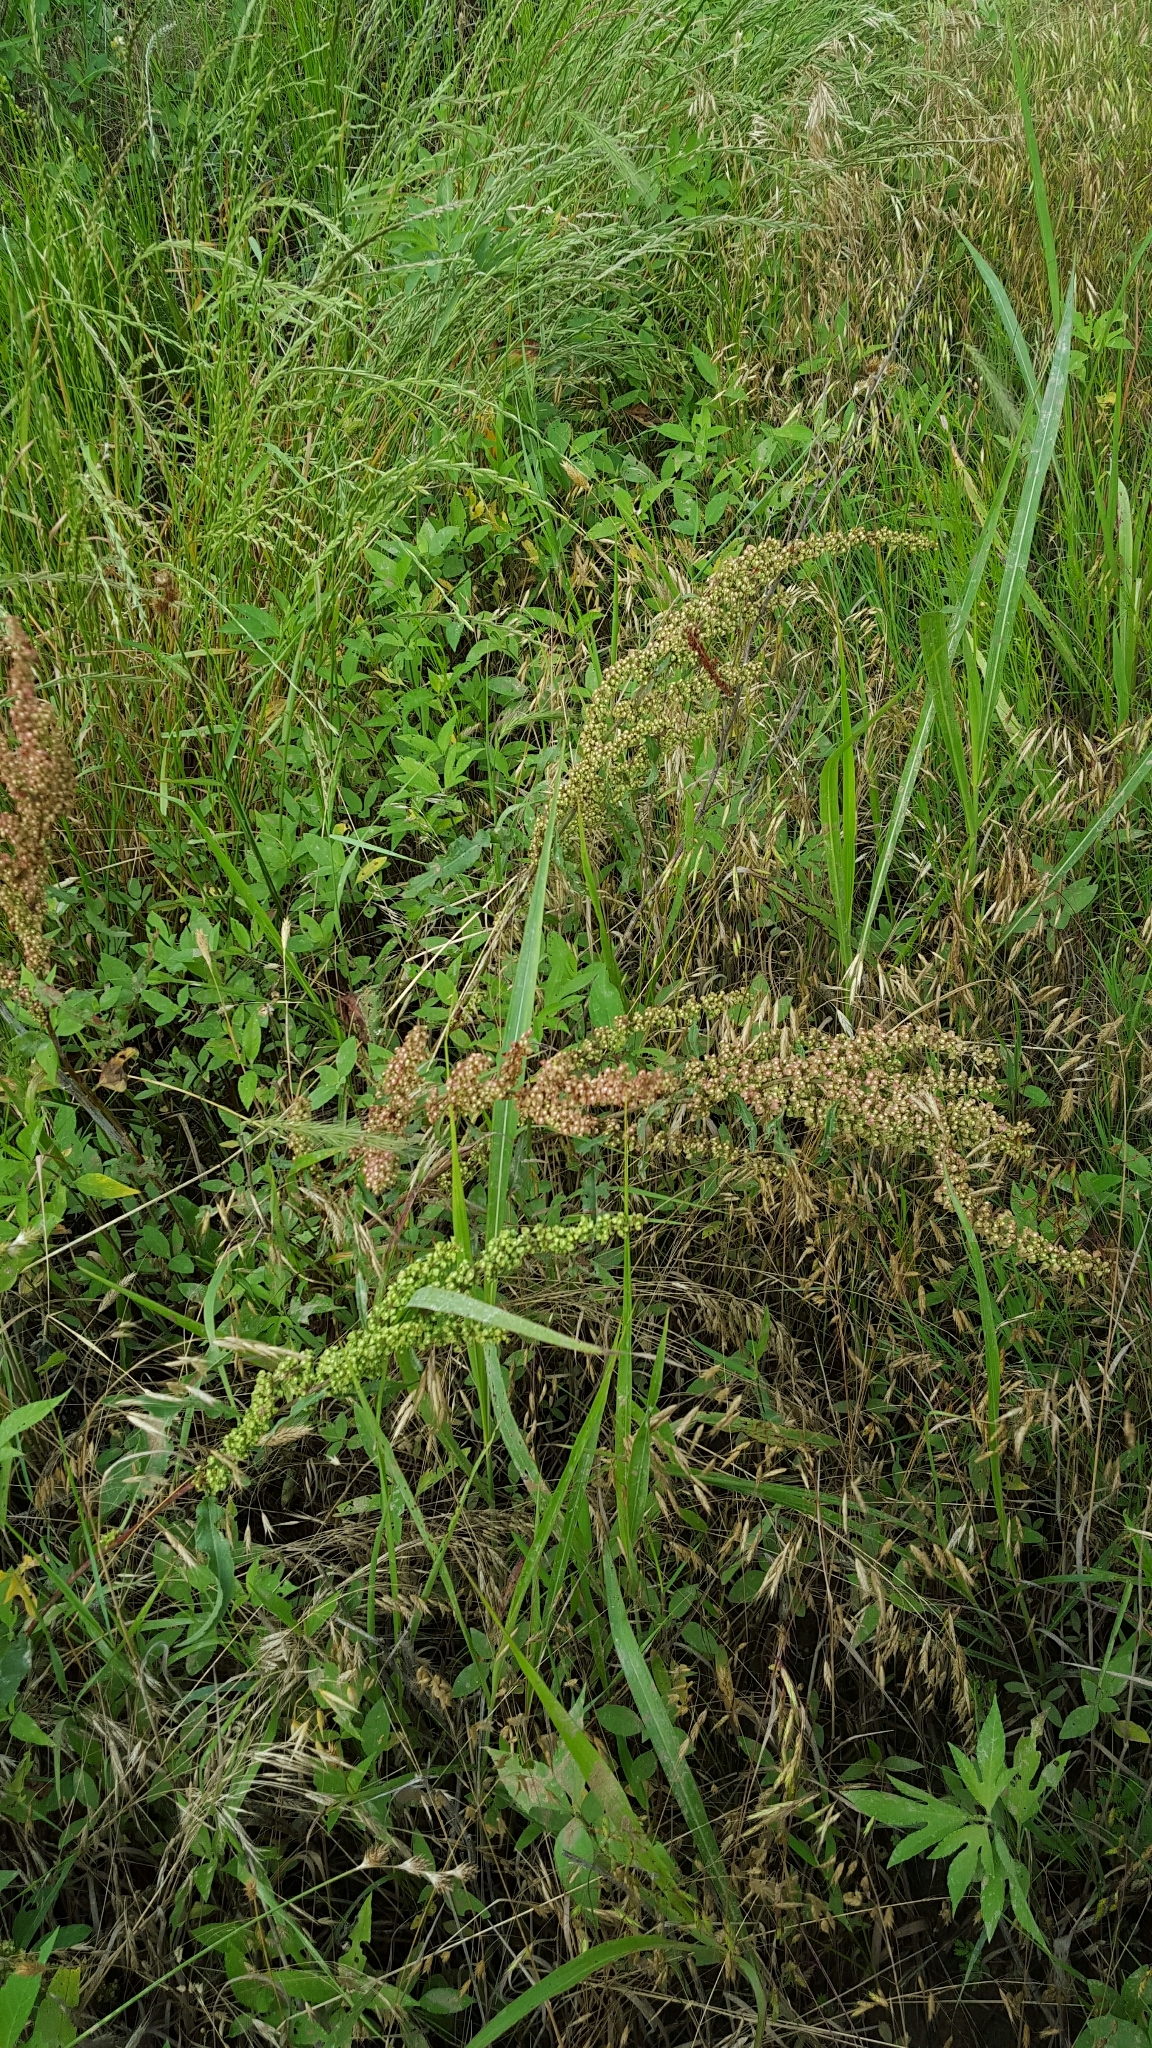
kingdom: Plantae
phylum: Tracheophyta
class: Magnoliopsida
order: Caryophyllales
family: Polygonaceae
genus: Rumex
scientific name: Rumex crispus
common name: Curled dock
